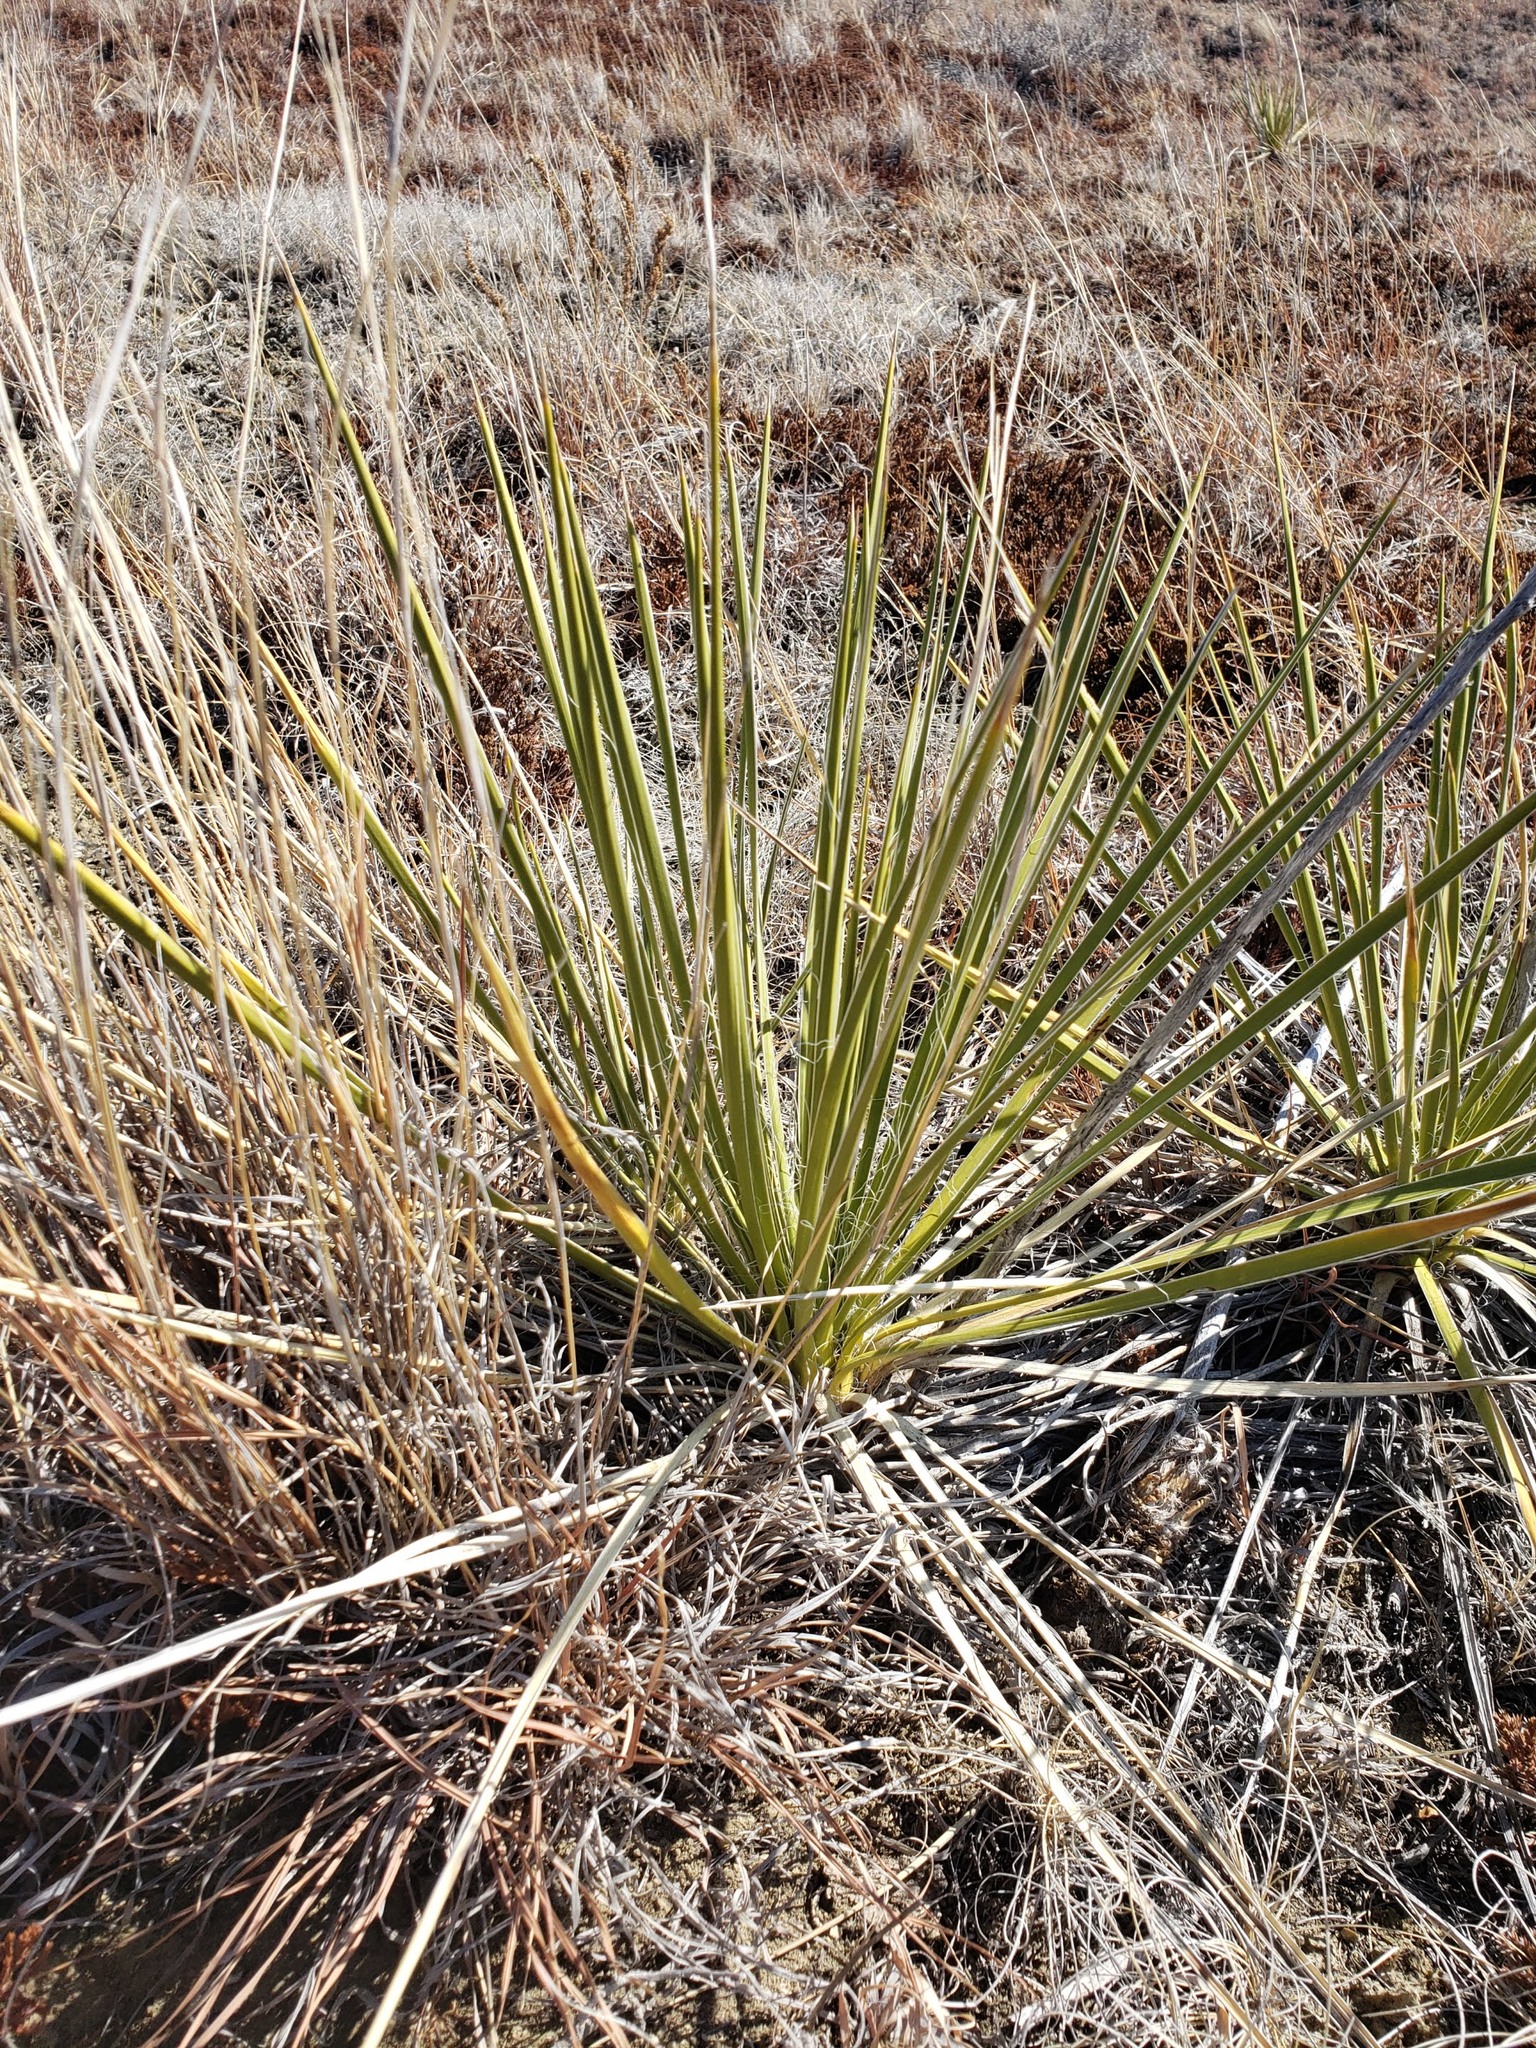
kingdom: Plantae
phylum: Tracheophyta
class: Liliopsida
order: Asparagales
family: Asparagaceae
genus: Yucca
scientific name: Yucca glauca
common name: Great plains yucca
